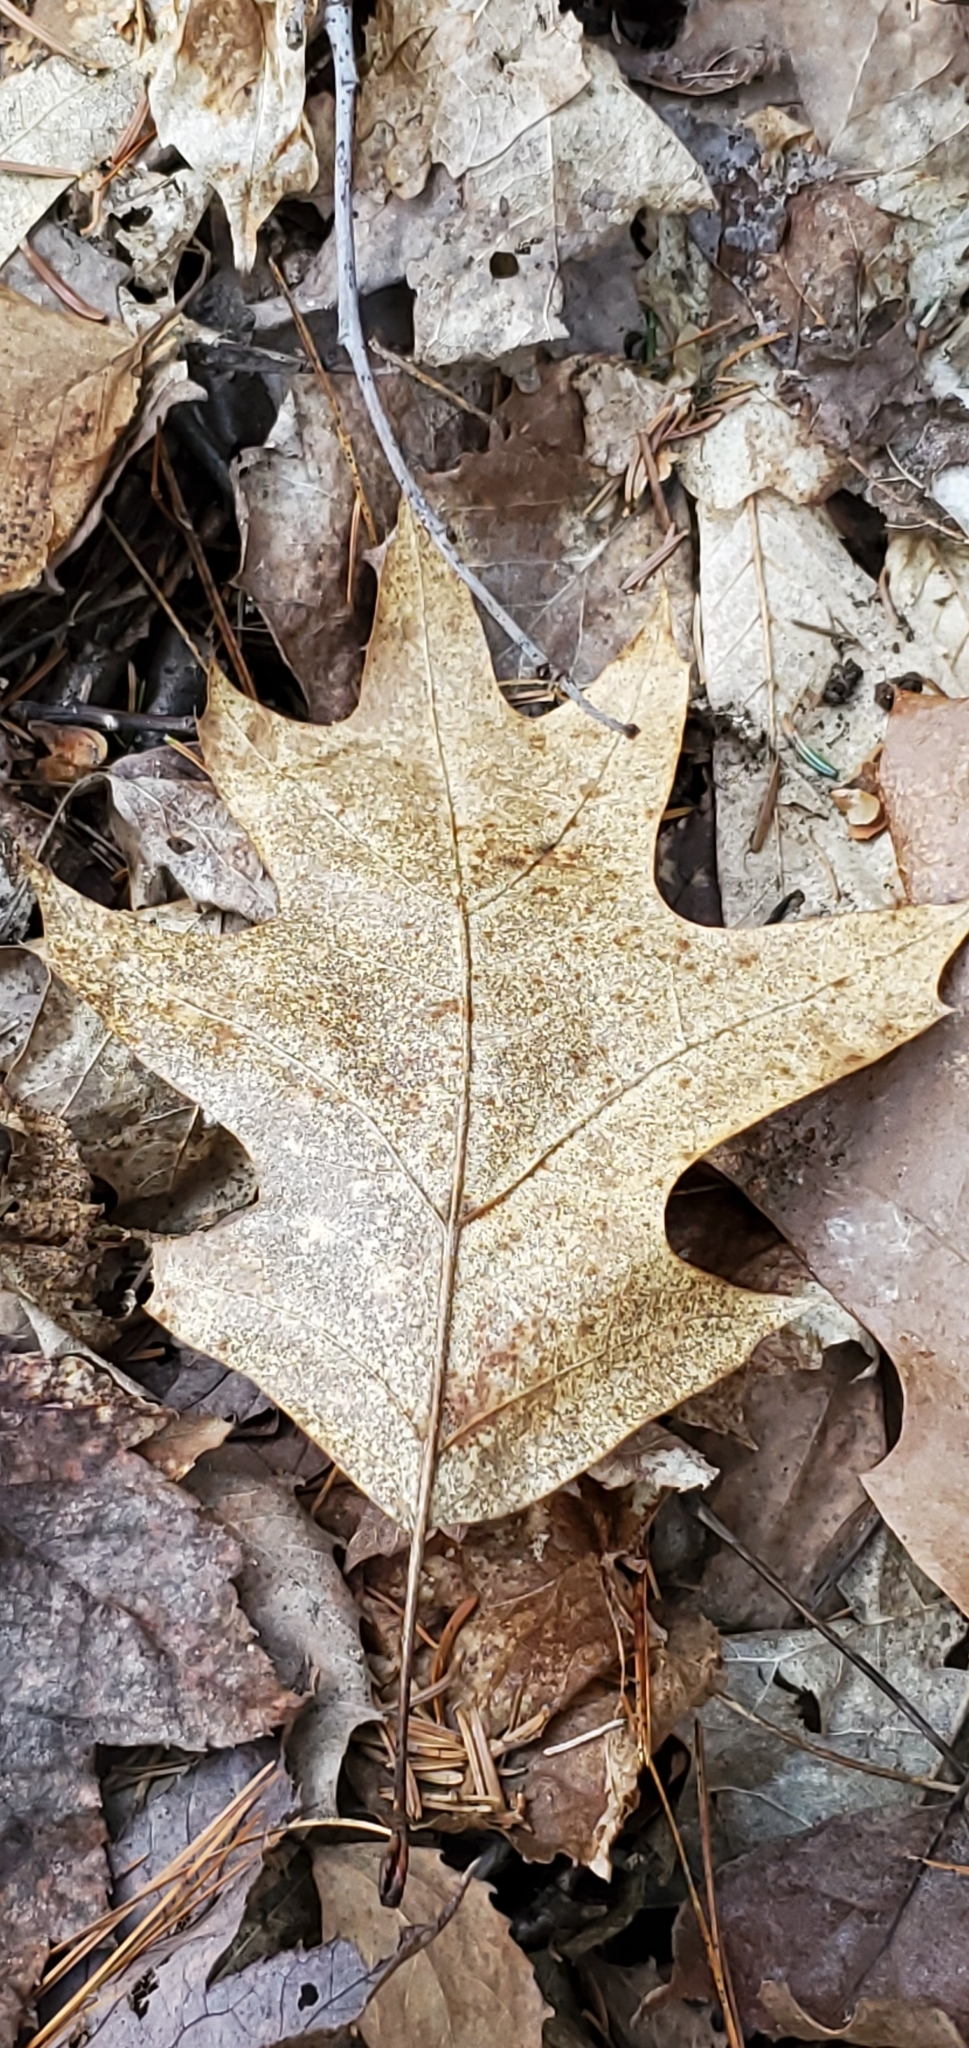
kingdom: Plantae
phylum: Tracheophyta
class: Magnoliopsida
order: Fagales
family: Fagaceae
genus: Quercus
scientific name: Quercus rubra
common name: Red oak
